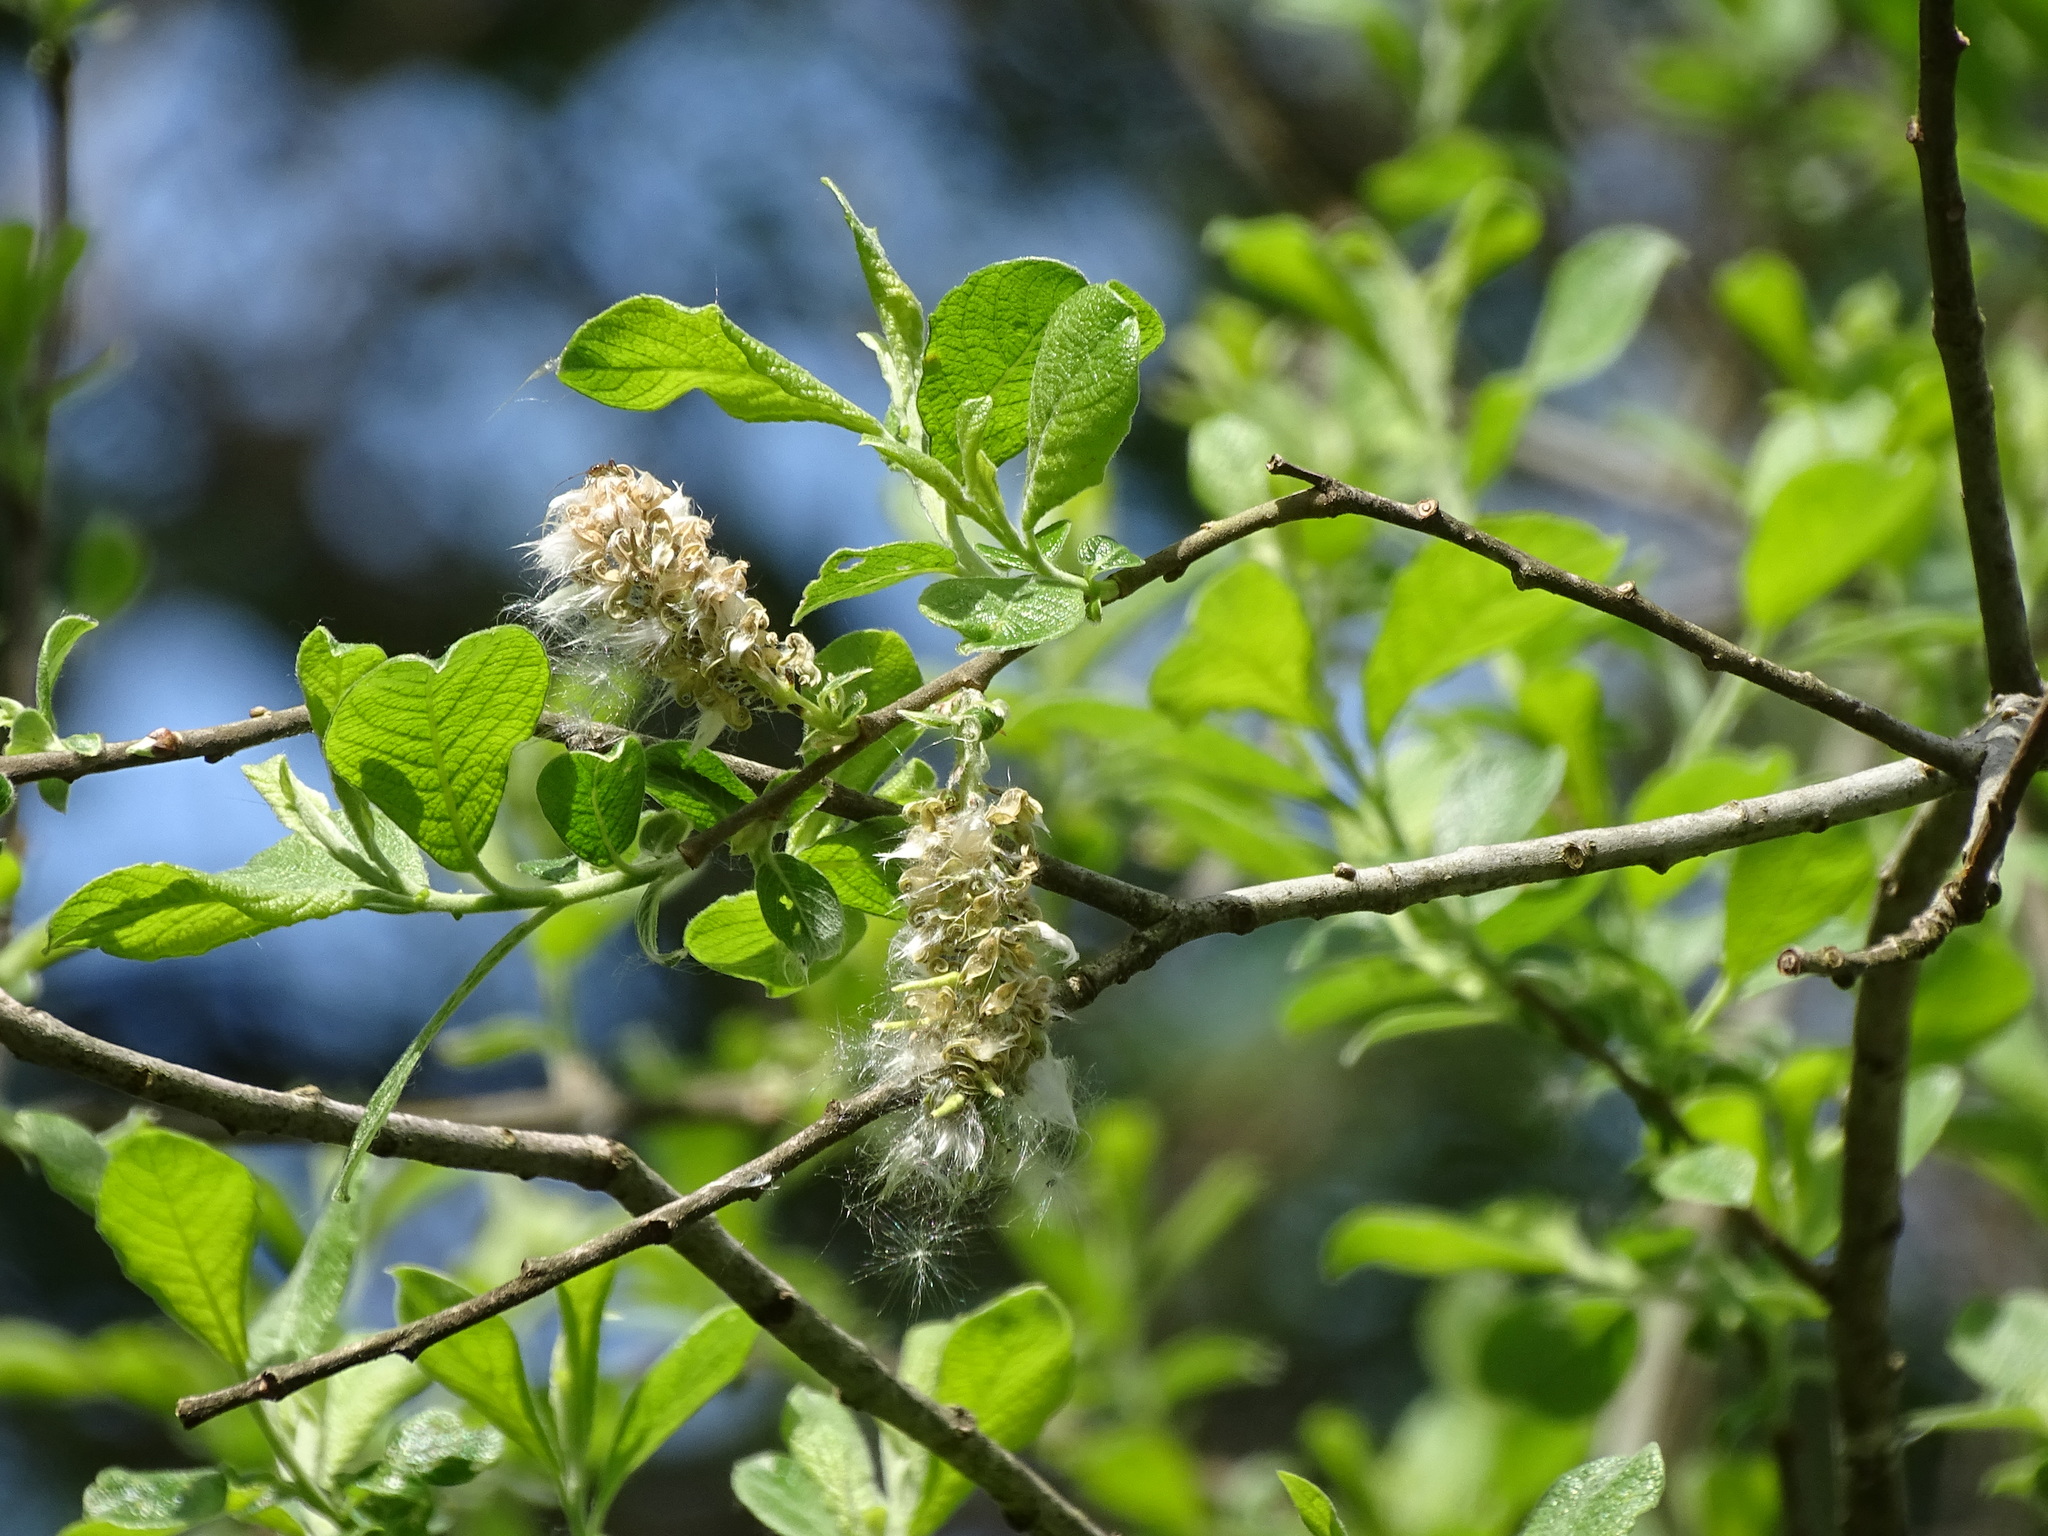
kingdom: Plantae
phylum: Tracheophyta
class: Magnoliopsida
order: Malpighiales
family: Salicaceae
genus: Salix
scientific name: Salix cinerea
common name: Common sallow
